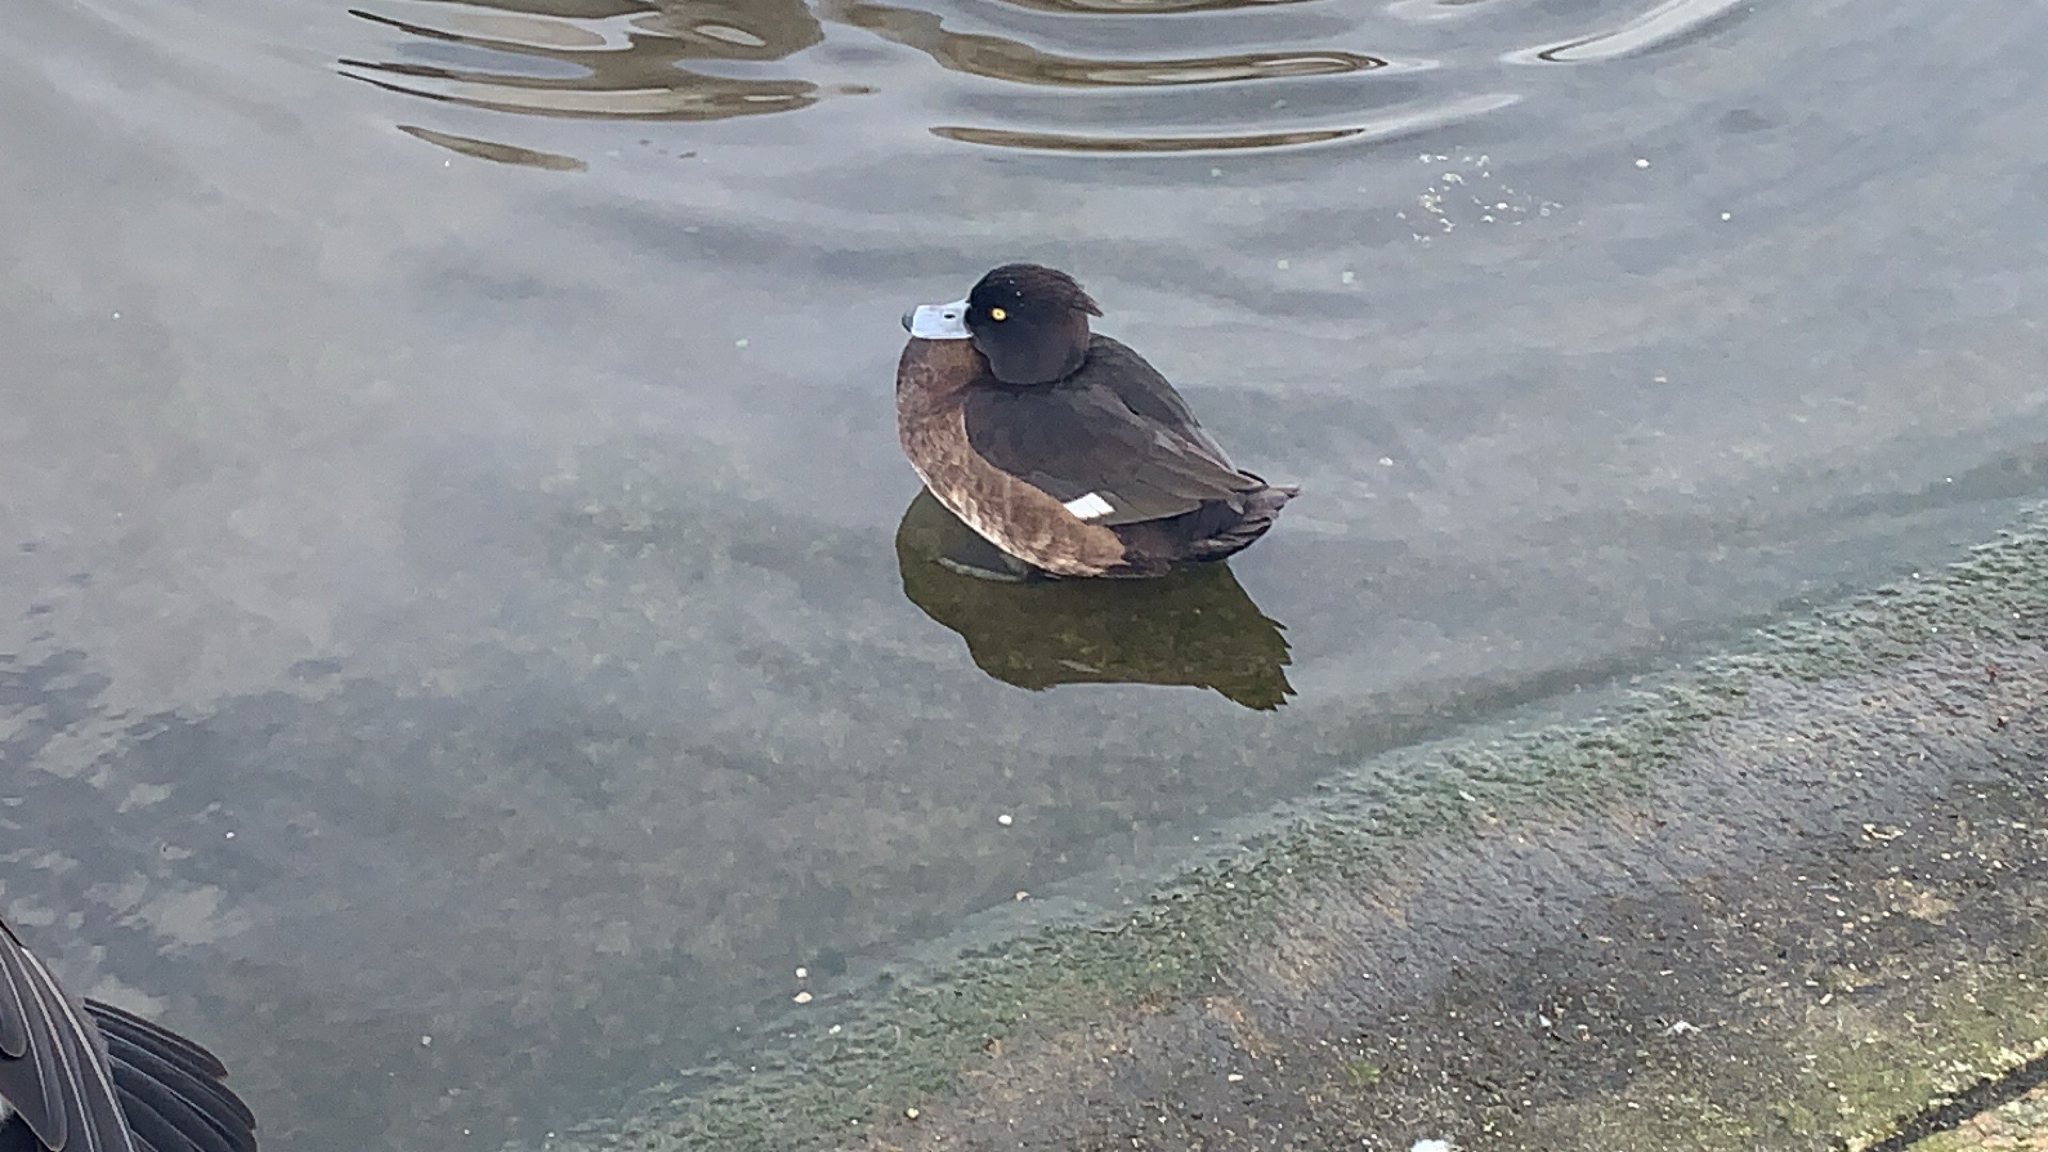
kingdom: Animalia
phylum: Chordata
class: Aves
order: Anseriformes
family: Anatidae
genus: Aythya
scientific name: Aythya fuligula
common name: Tufted duck
